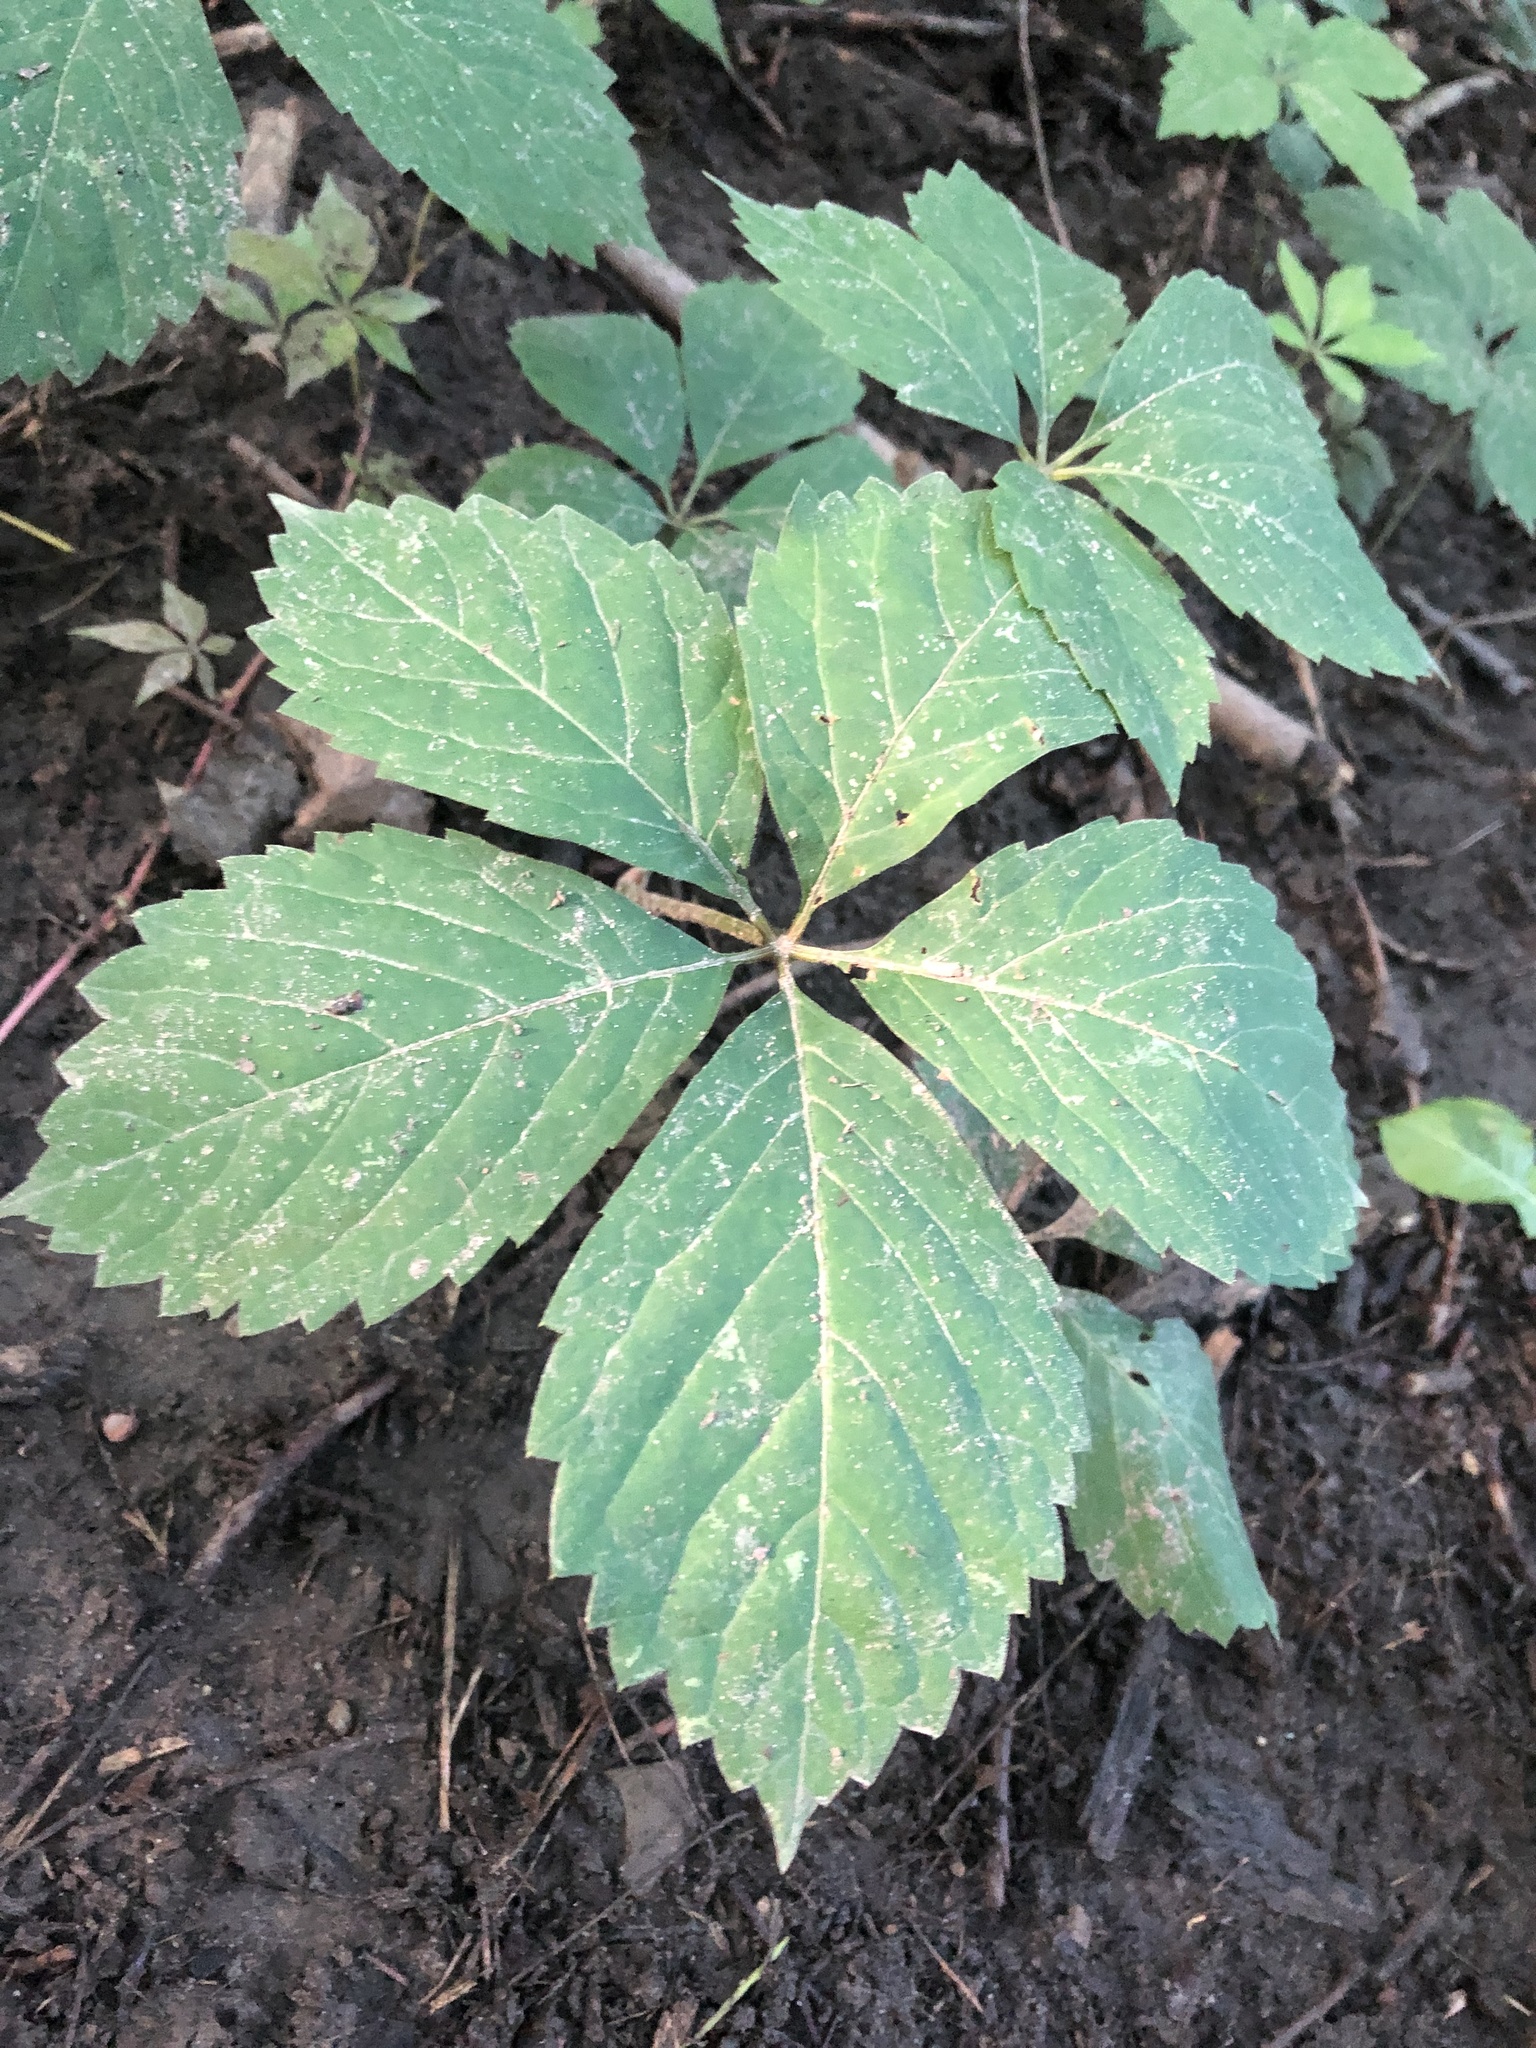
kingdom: Plantae
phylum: Tracheophyta
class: Magnoliopsida
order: Vitales
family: Vitaceae
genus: Parthenocissus
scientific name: Parthenocissus inserta
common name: False virginia-creeper
